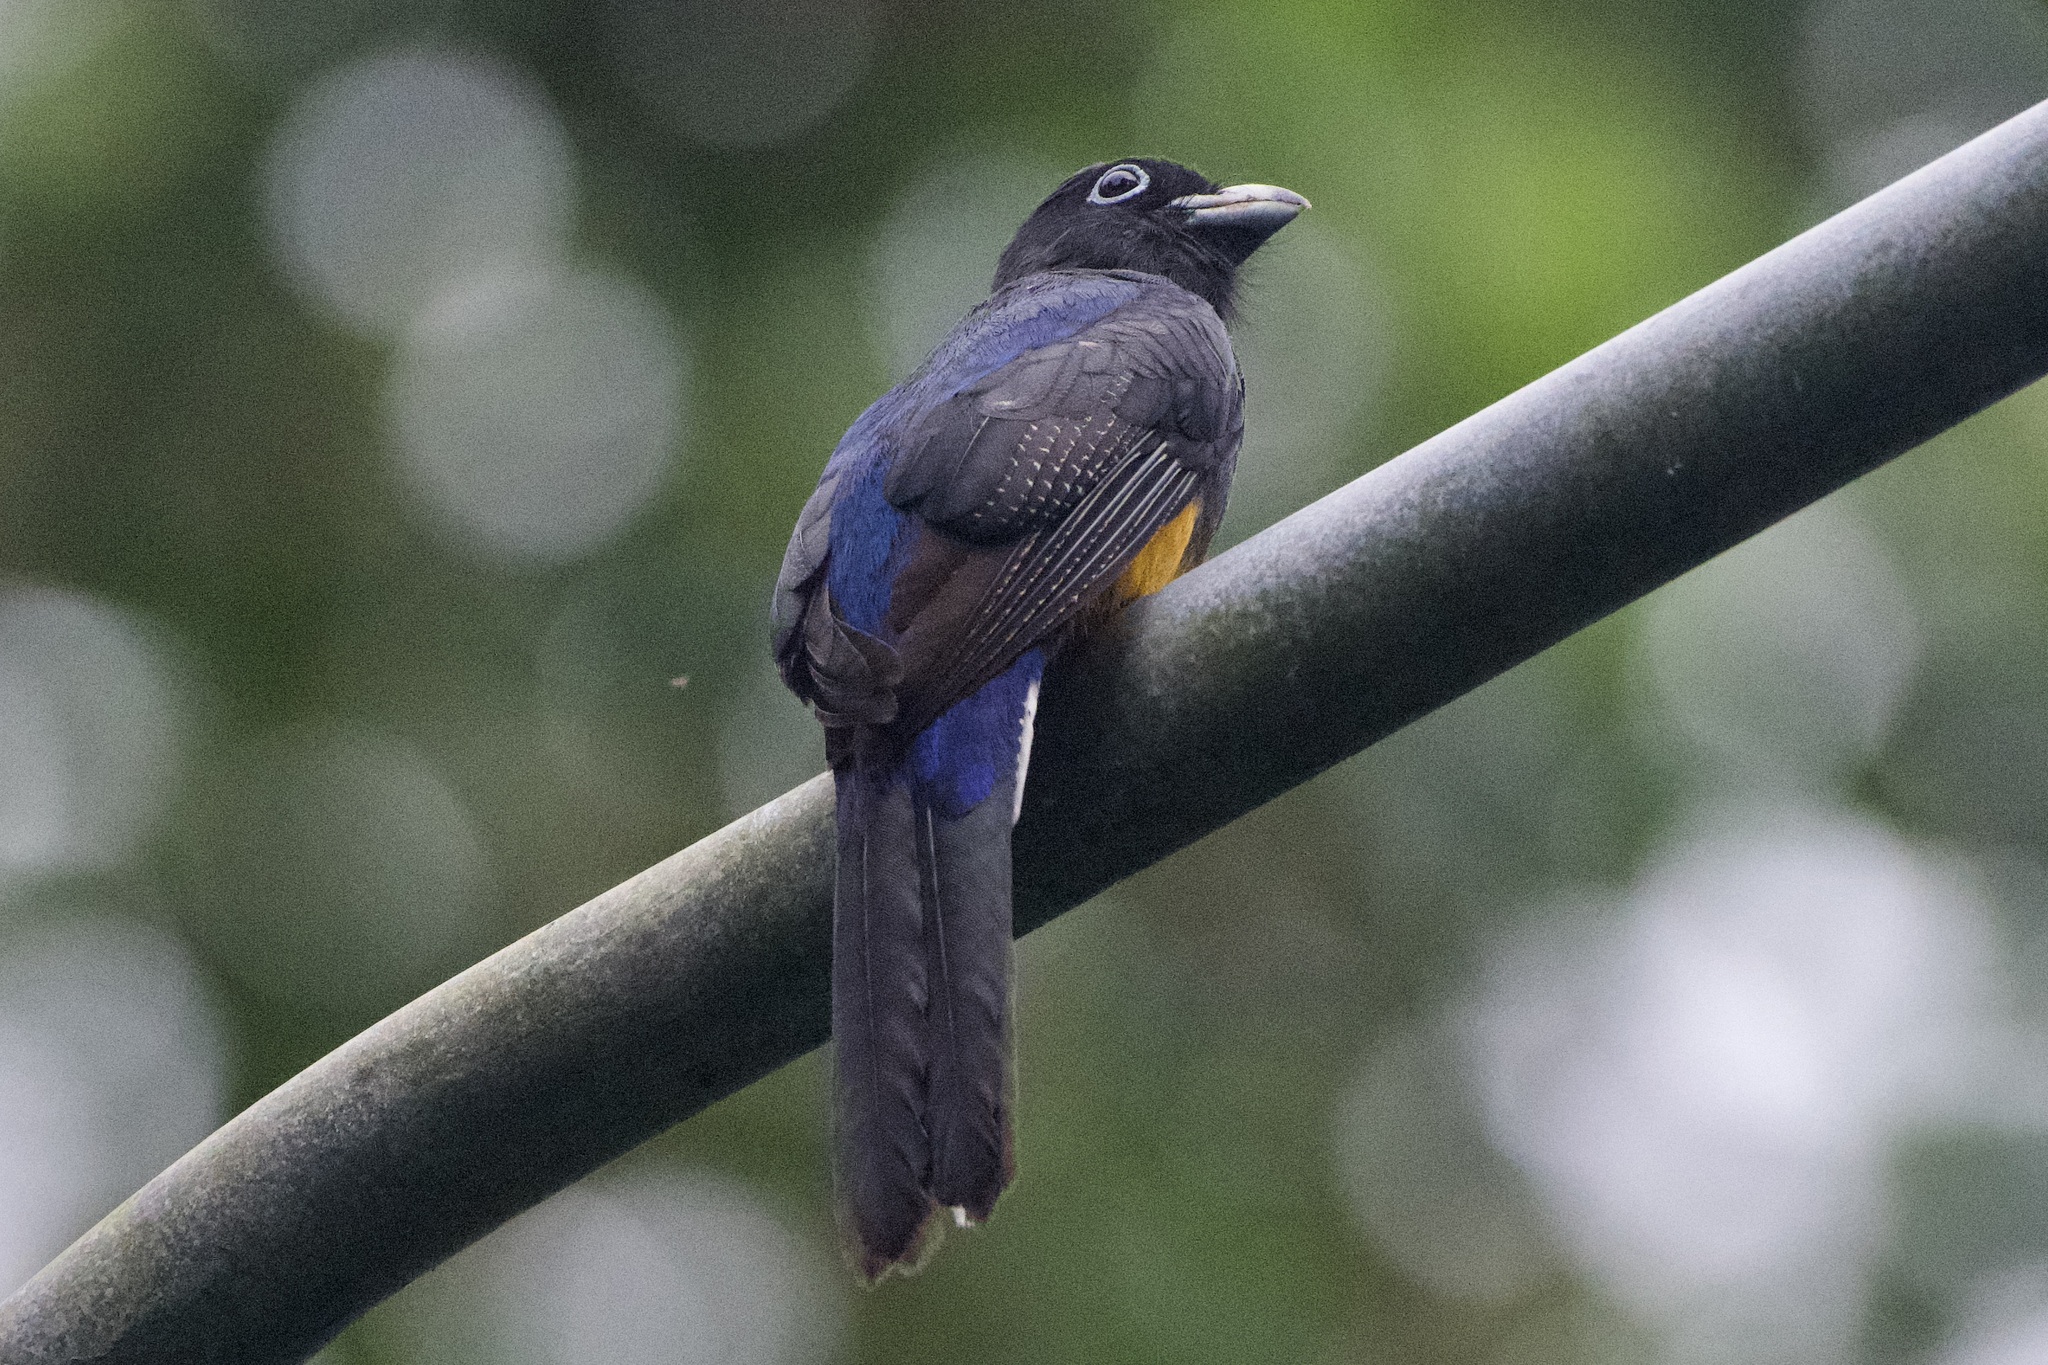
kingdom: Animalia
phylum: Chordata
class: Aves
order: Trogoniformes
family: Trogonidae
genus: Trogon
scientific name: Trogon chionurus
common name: White-tailed trogon
